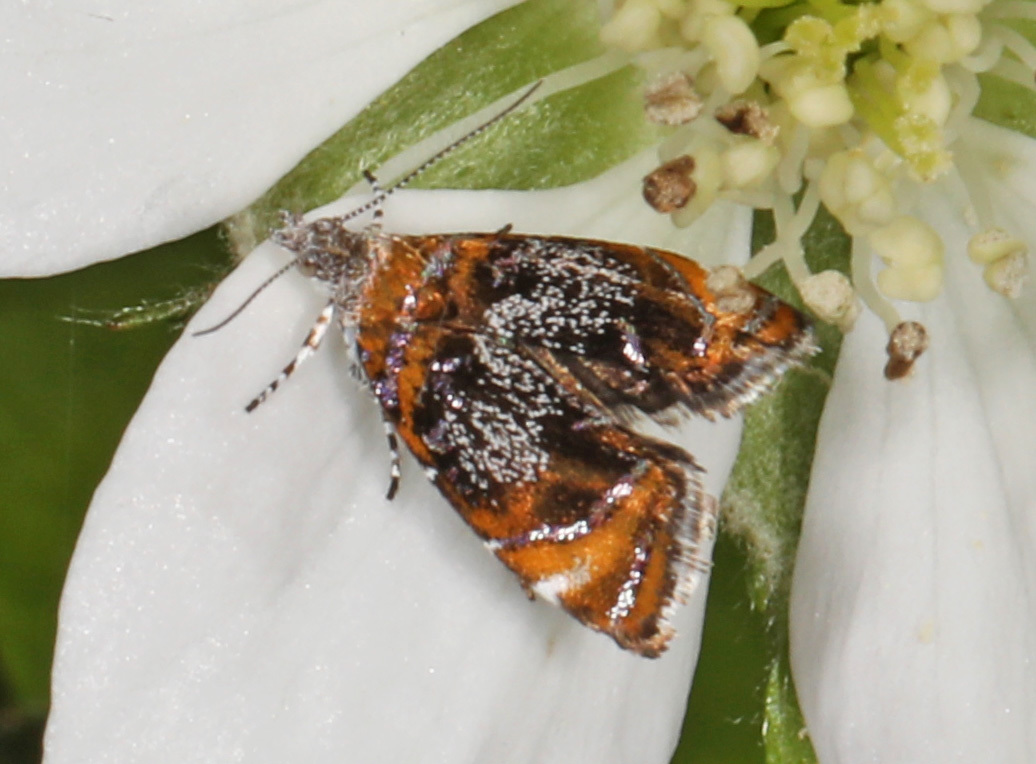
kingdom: Animalia
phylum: Arthropoda
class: Insecta
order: Lepidoptera
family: Choreutidae
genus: Prochoreutis
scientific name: Prochoreutis inflatella
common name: Skullcap skeletonizer moth
